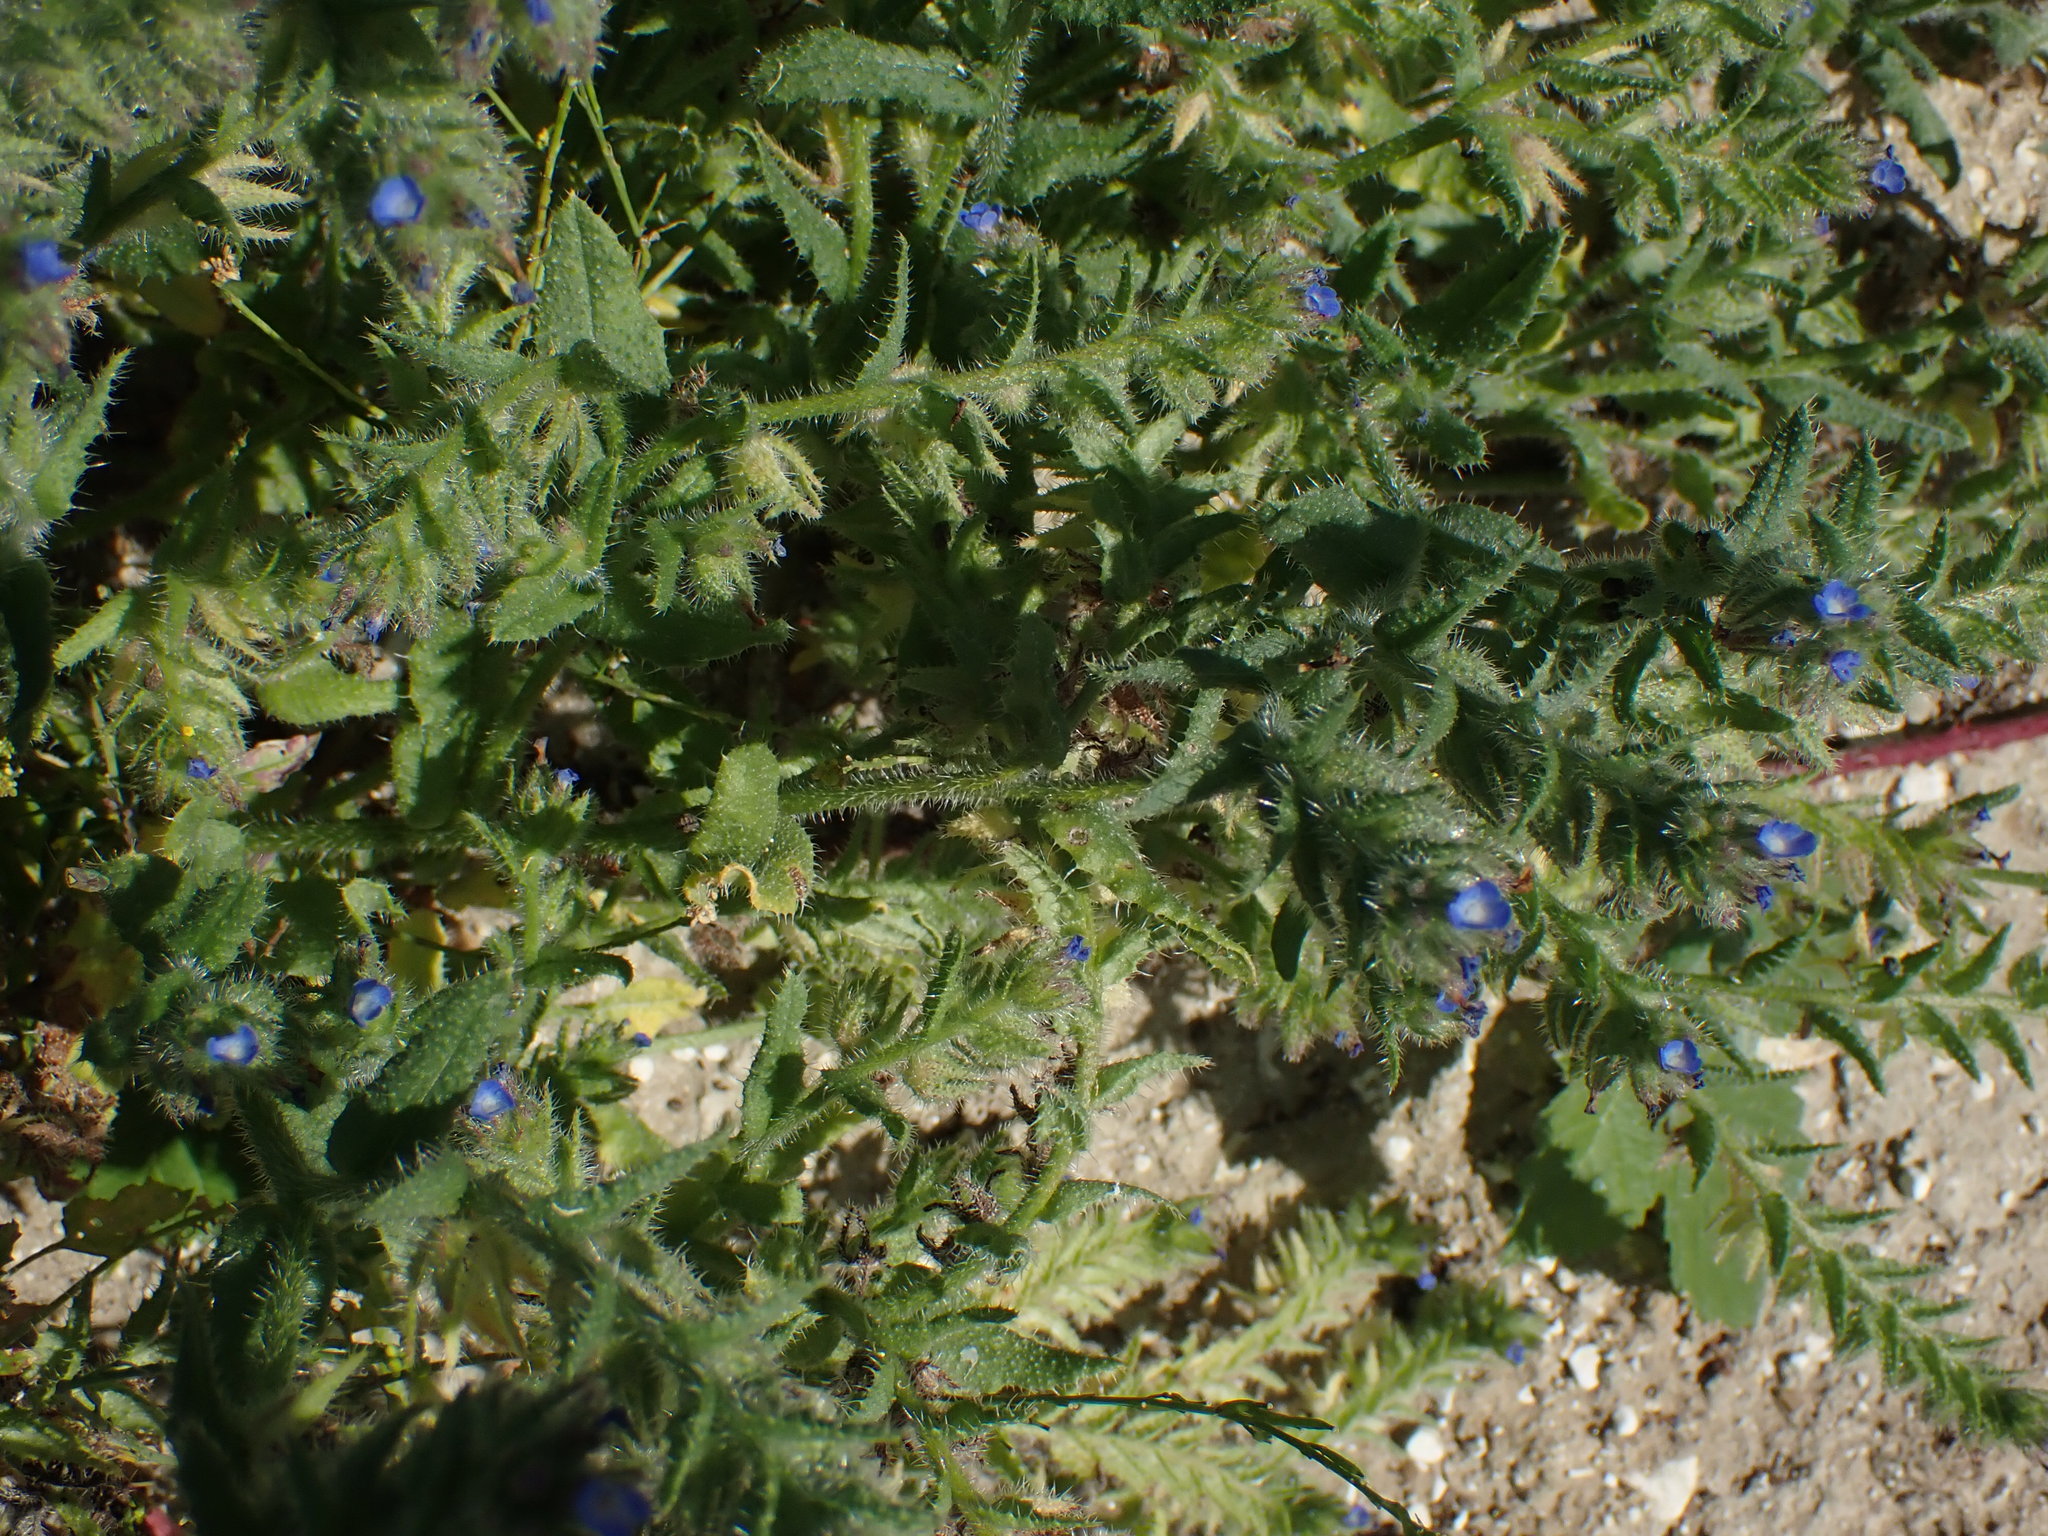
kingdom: Plantae
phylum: Tracheophyta
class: Magnoliopsida
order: Boraginales
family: Boraginaceae
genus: Lycopsis
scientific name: Lycopsis arvensis
